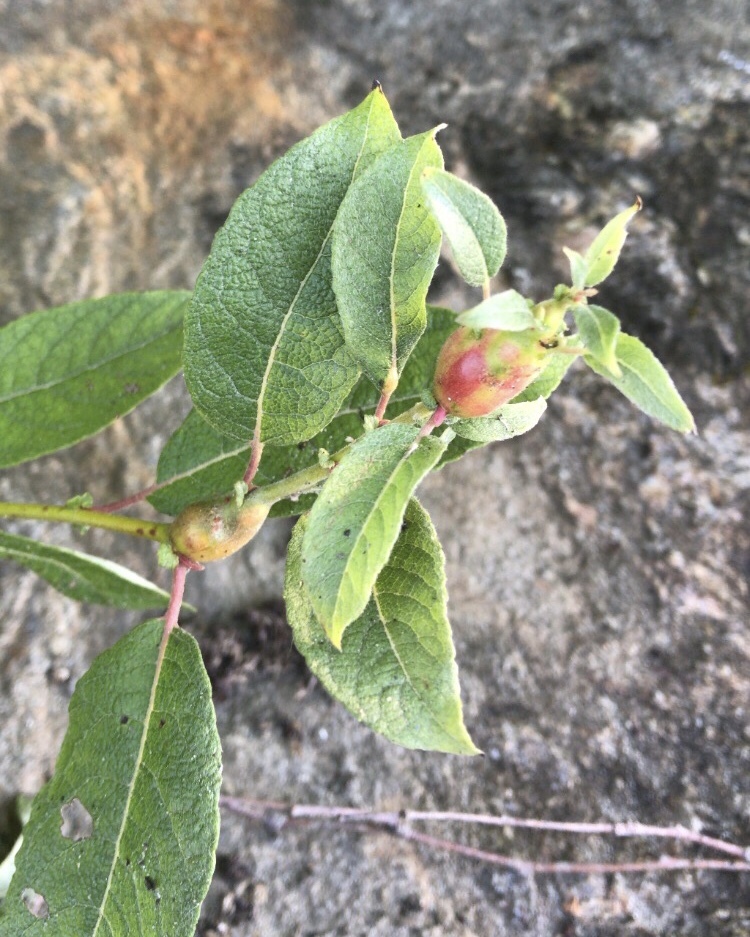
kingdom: Animalia
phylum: Arthropoda
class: Insecta
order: Diptera
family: Cecidomyiidae
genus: Rabdophaga
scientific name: Rabdophaga salicisbatatas
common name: Potato gall midge
